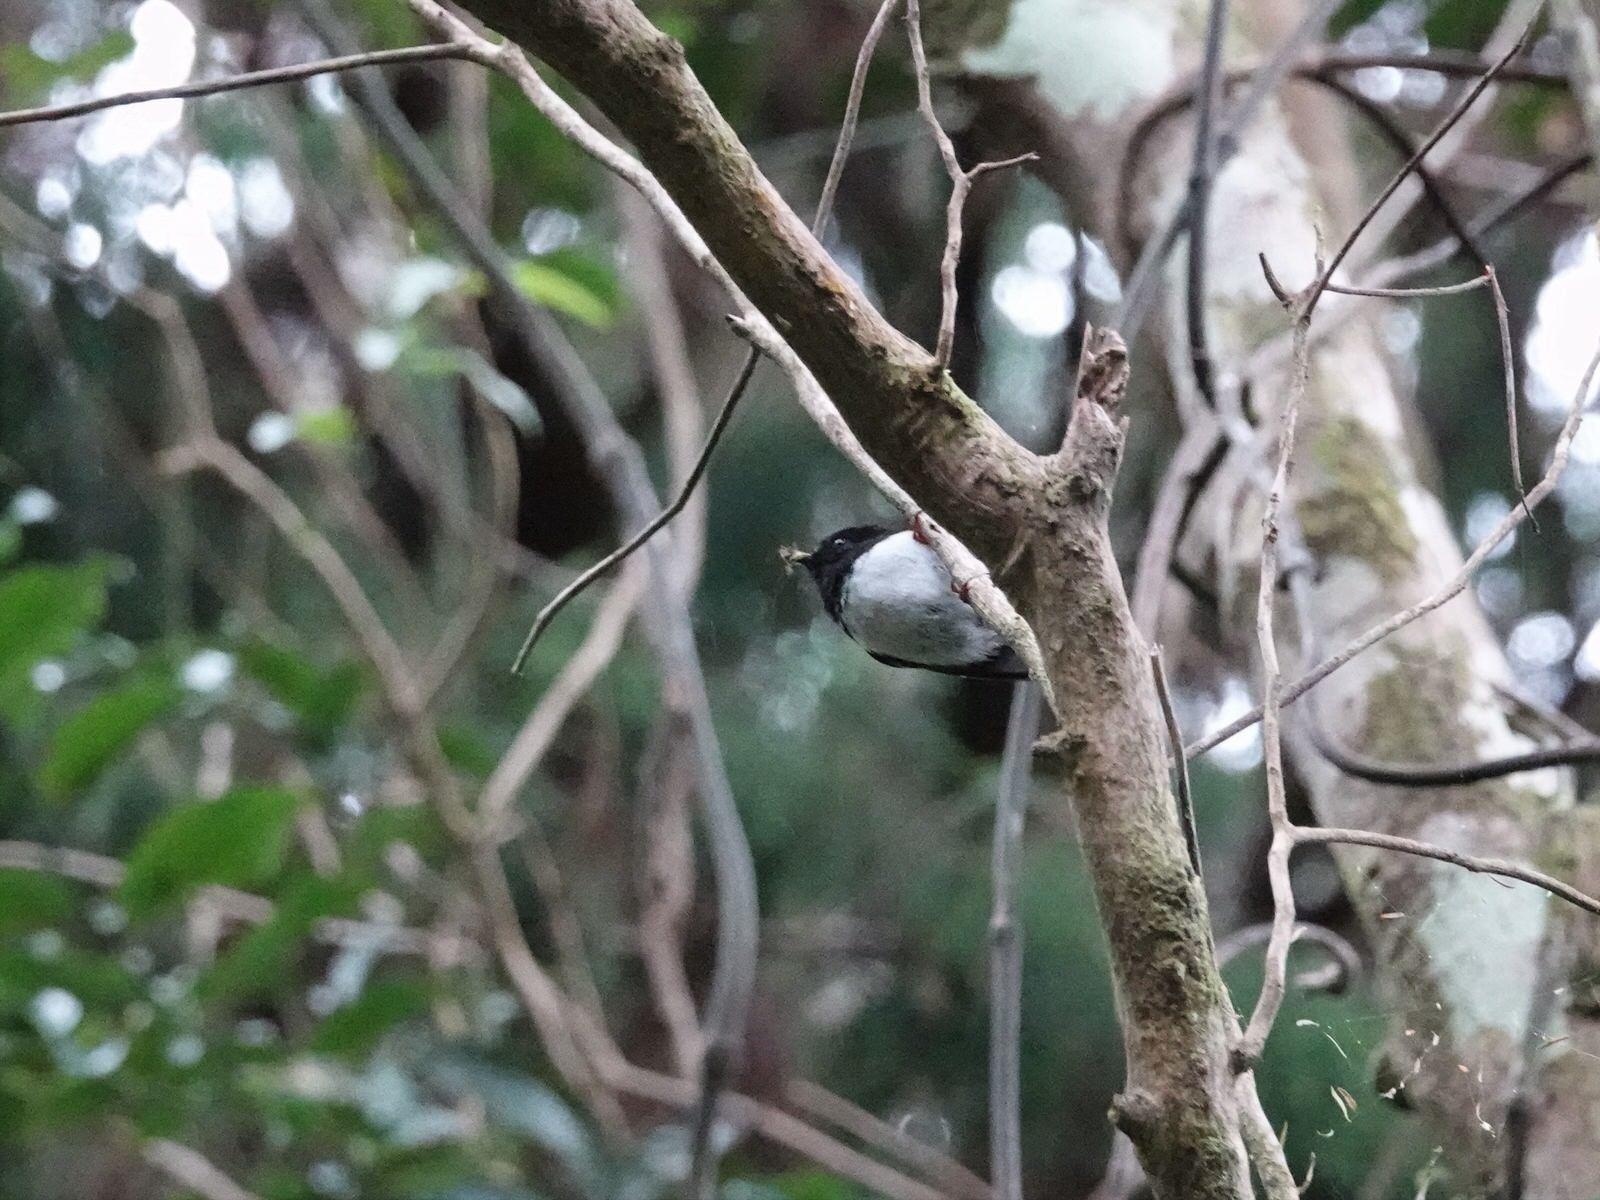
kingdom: Animalia
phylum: Chordata
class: Aves
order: Passeriformes
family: Petroicidae
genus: Petroica
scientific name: Petroica macrocephala
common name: Tomtit
